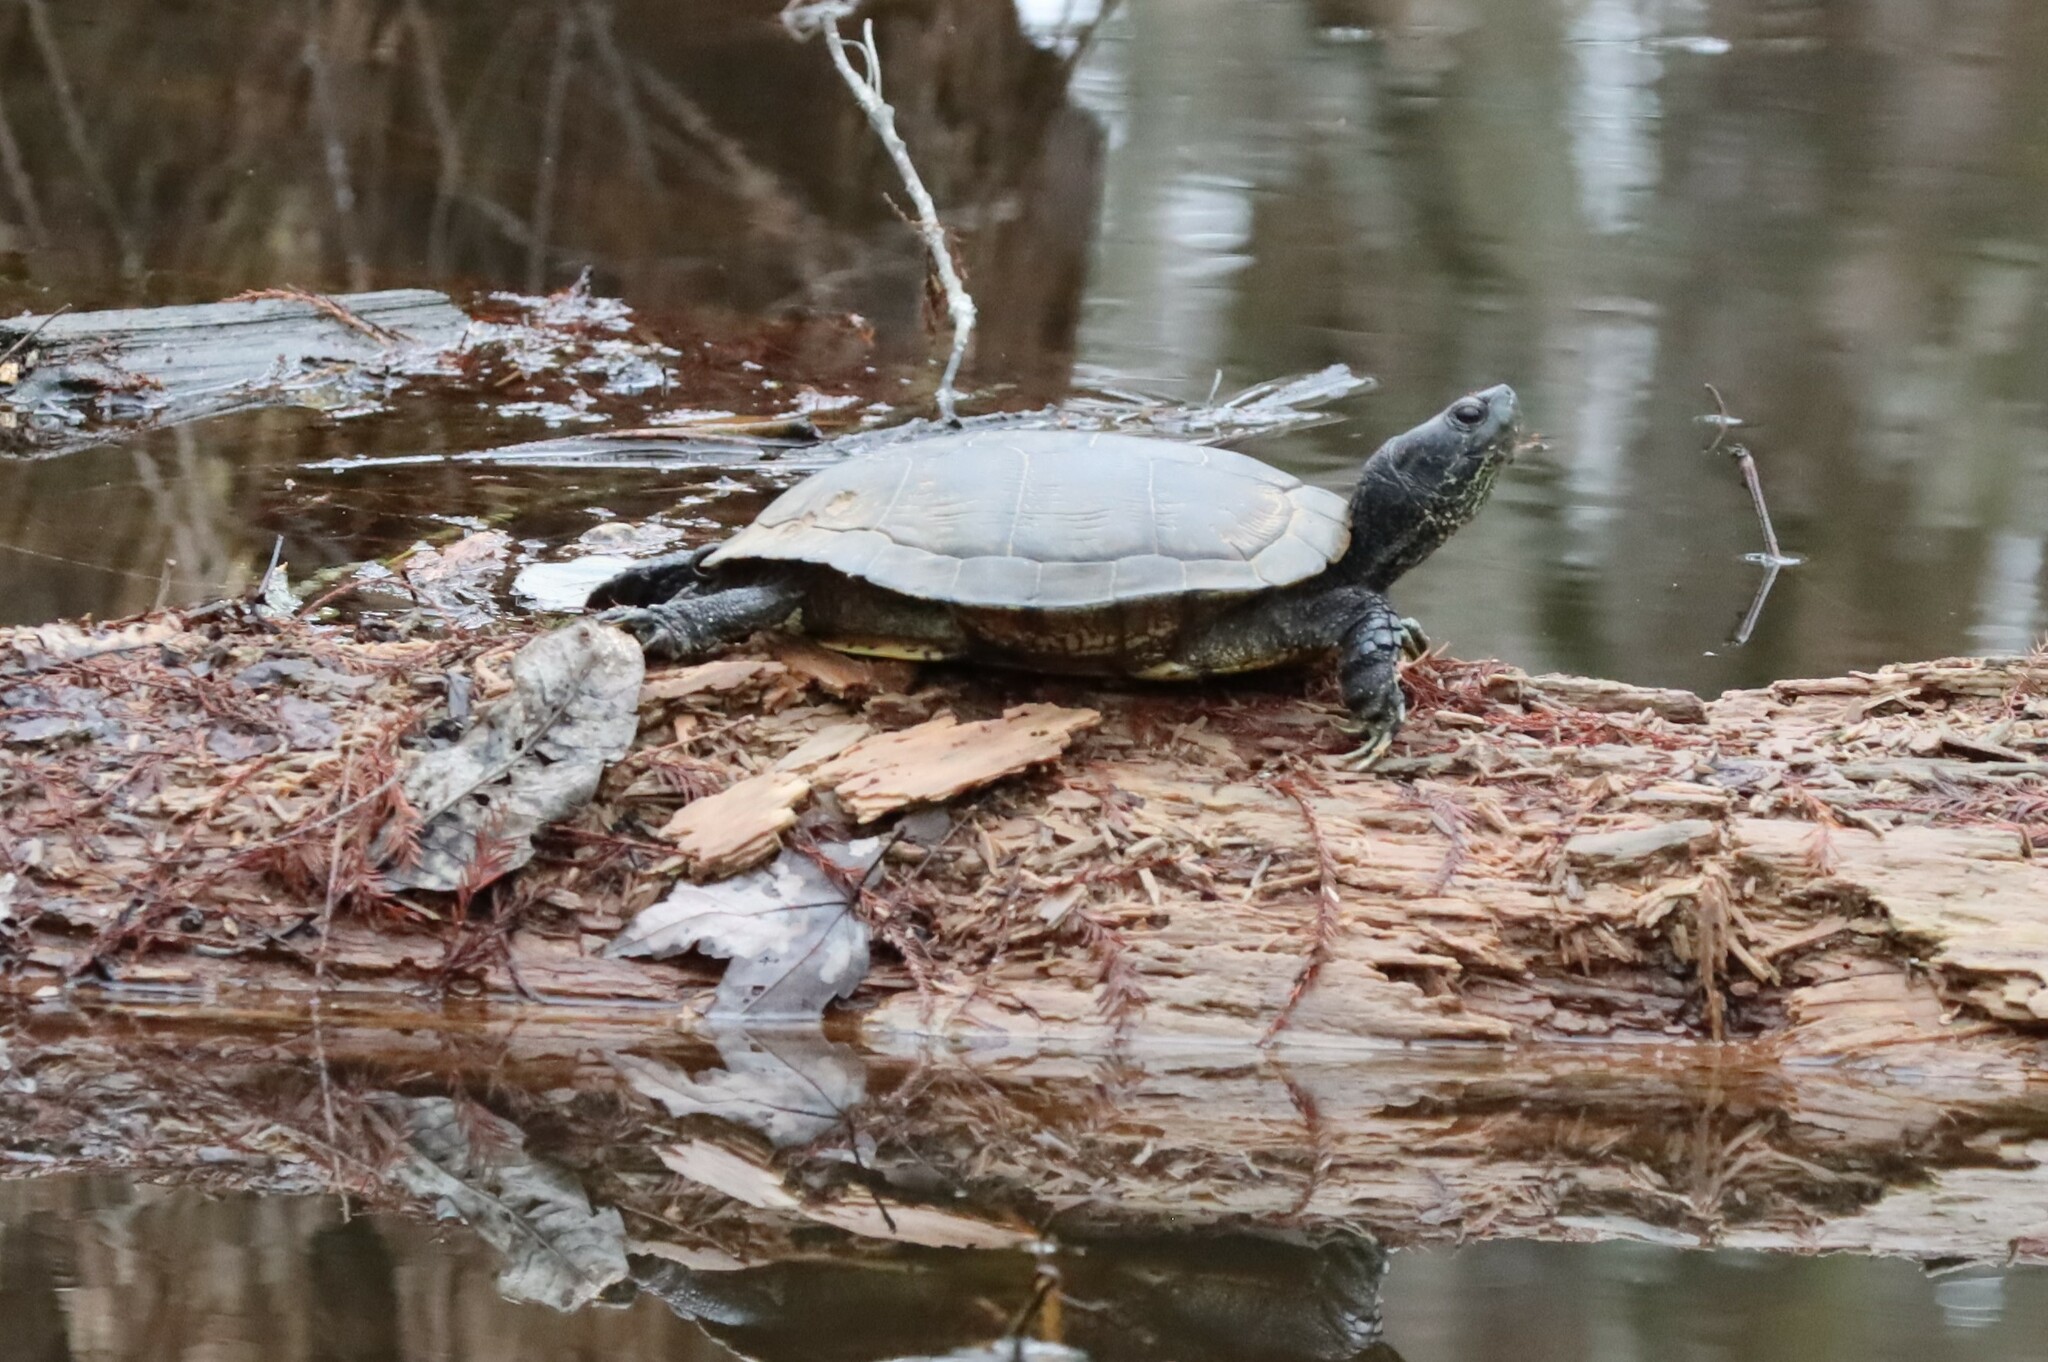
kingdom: Animalia
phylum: Chordata
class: Testudines
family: Emydidae
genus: Trachemys
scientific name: Trachemys scripta
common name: Slider
